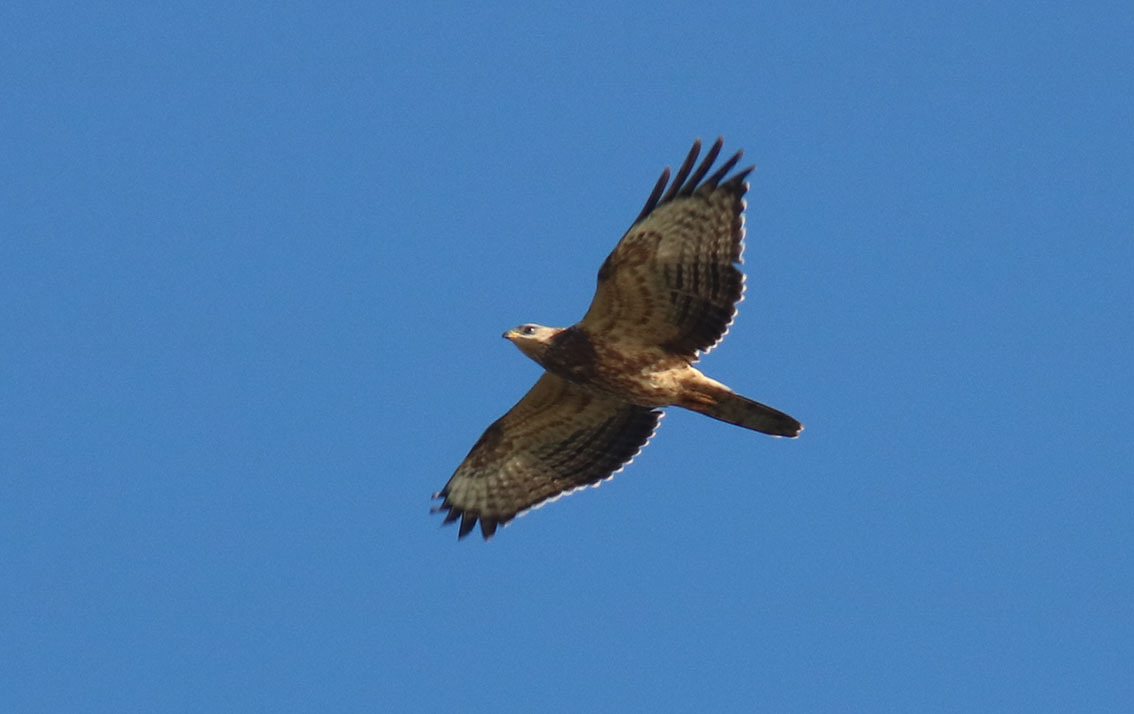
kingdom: Animalia
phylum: Chordata
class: Aves
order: Accipitriformes
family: Accipitridae
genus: Pernis
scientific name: Pernis apivorus
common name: European honey buzzard
